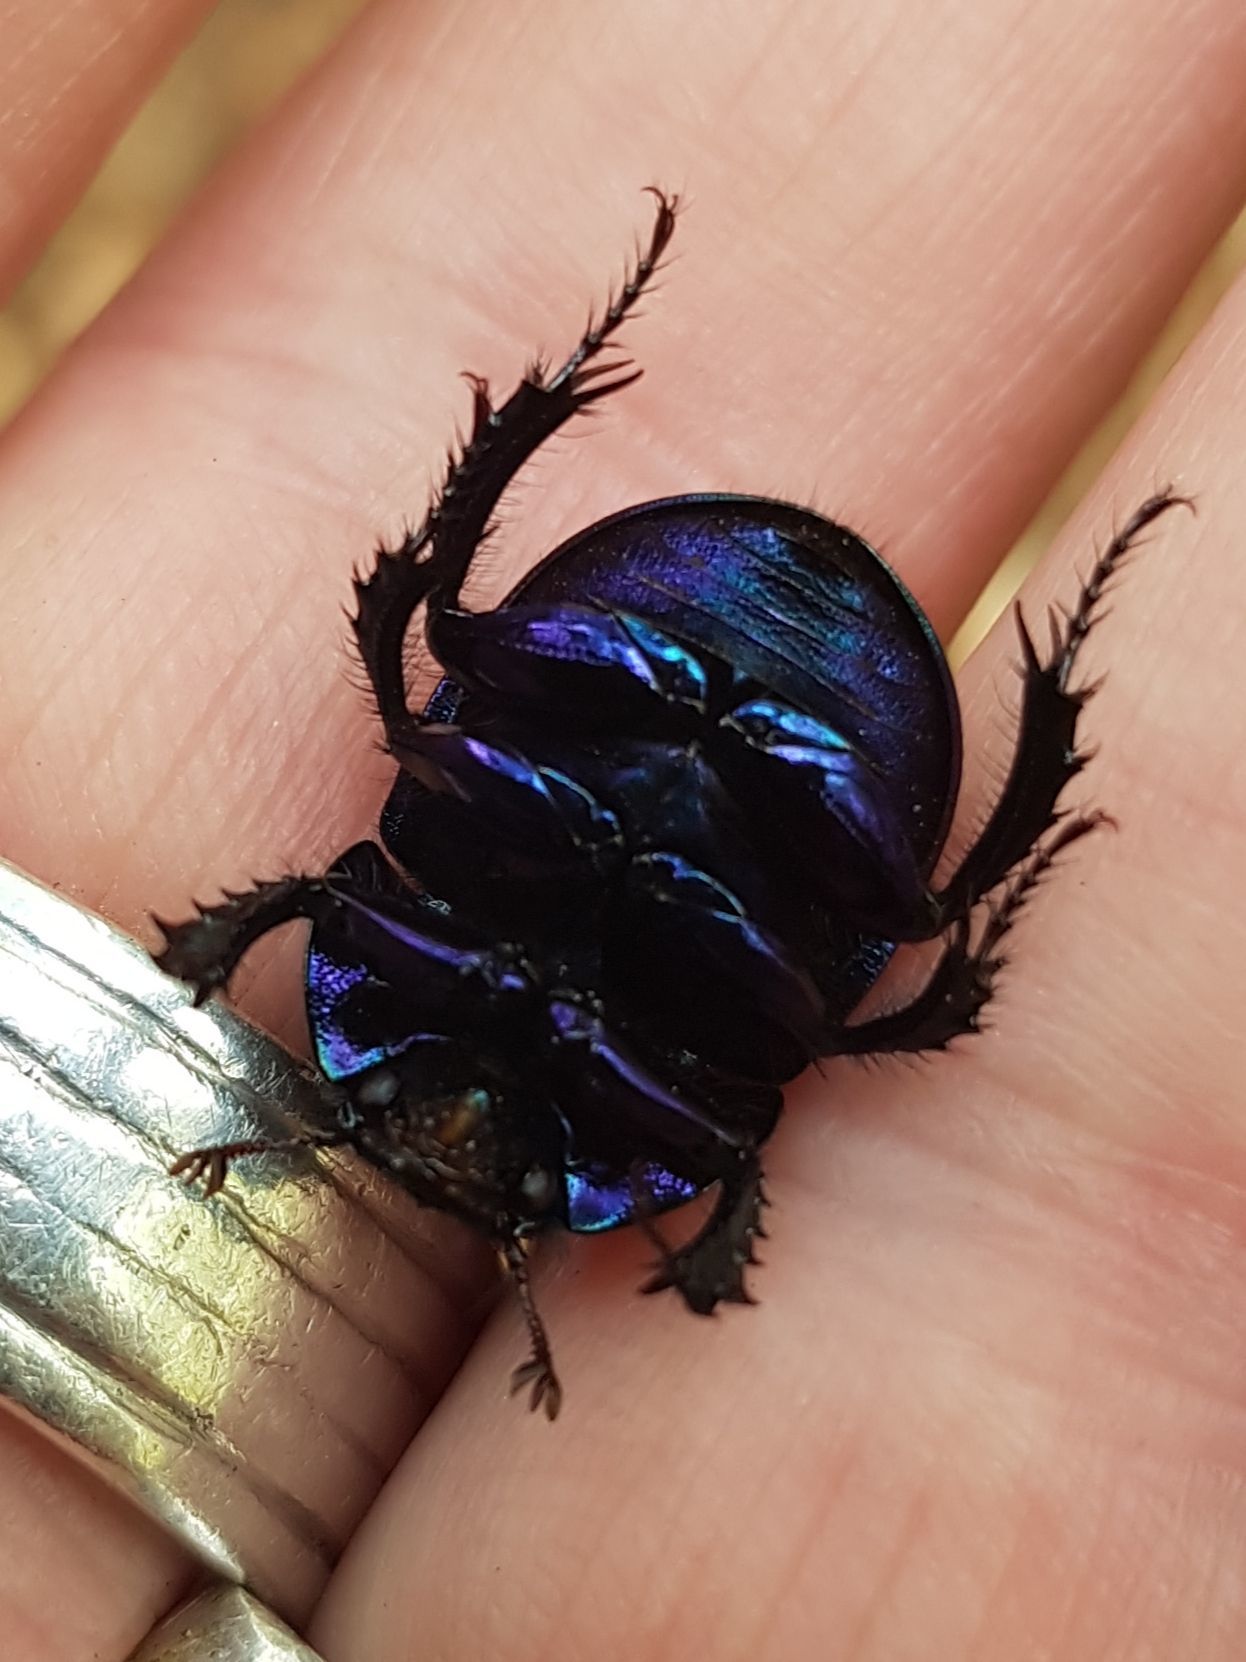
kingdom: Animalia
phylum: Arthropoda
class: Insecta
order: Coleoptera
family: Geotrupidae
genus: Anoplotrupes
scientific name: Anoplotrupes stercorosus
